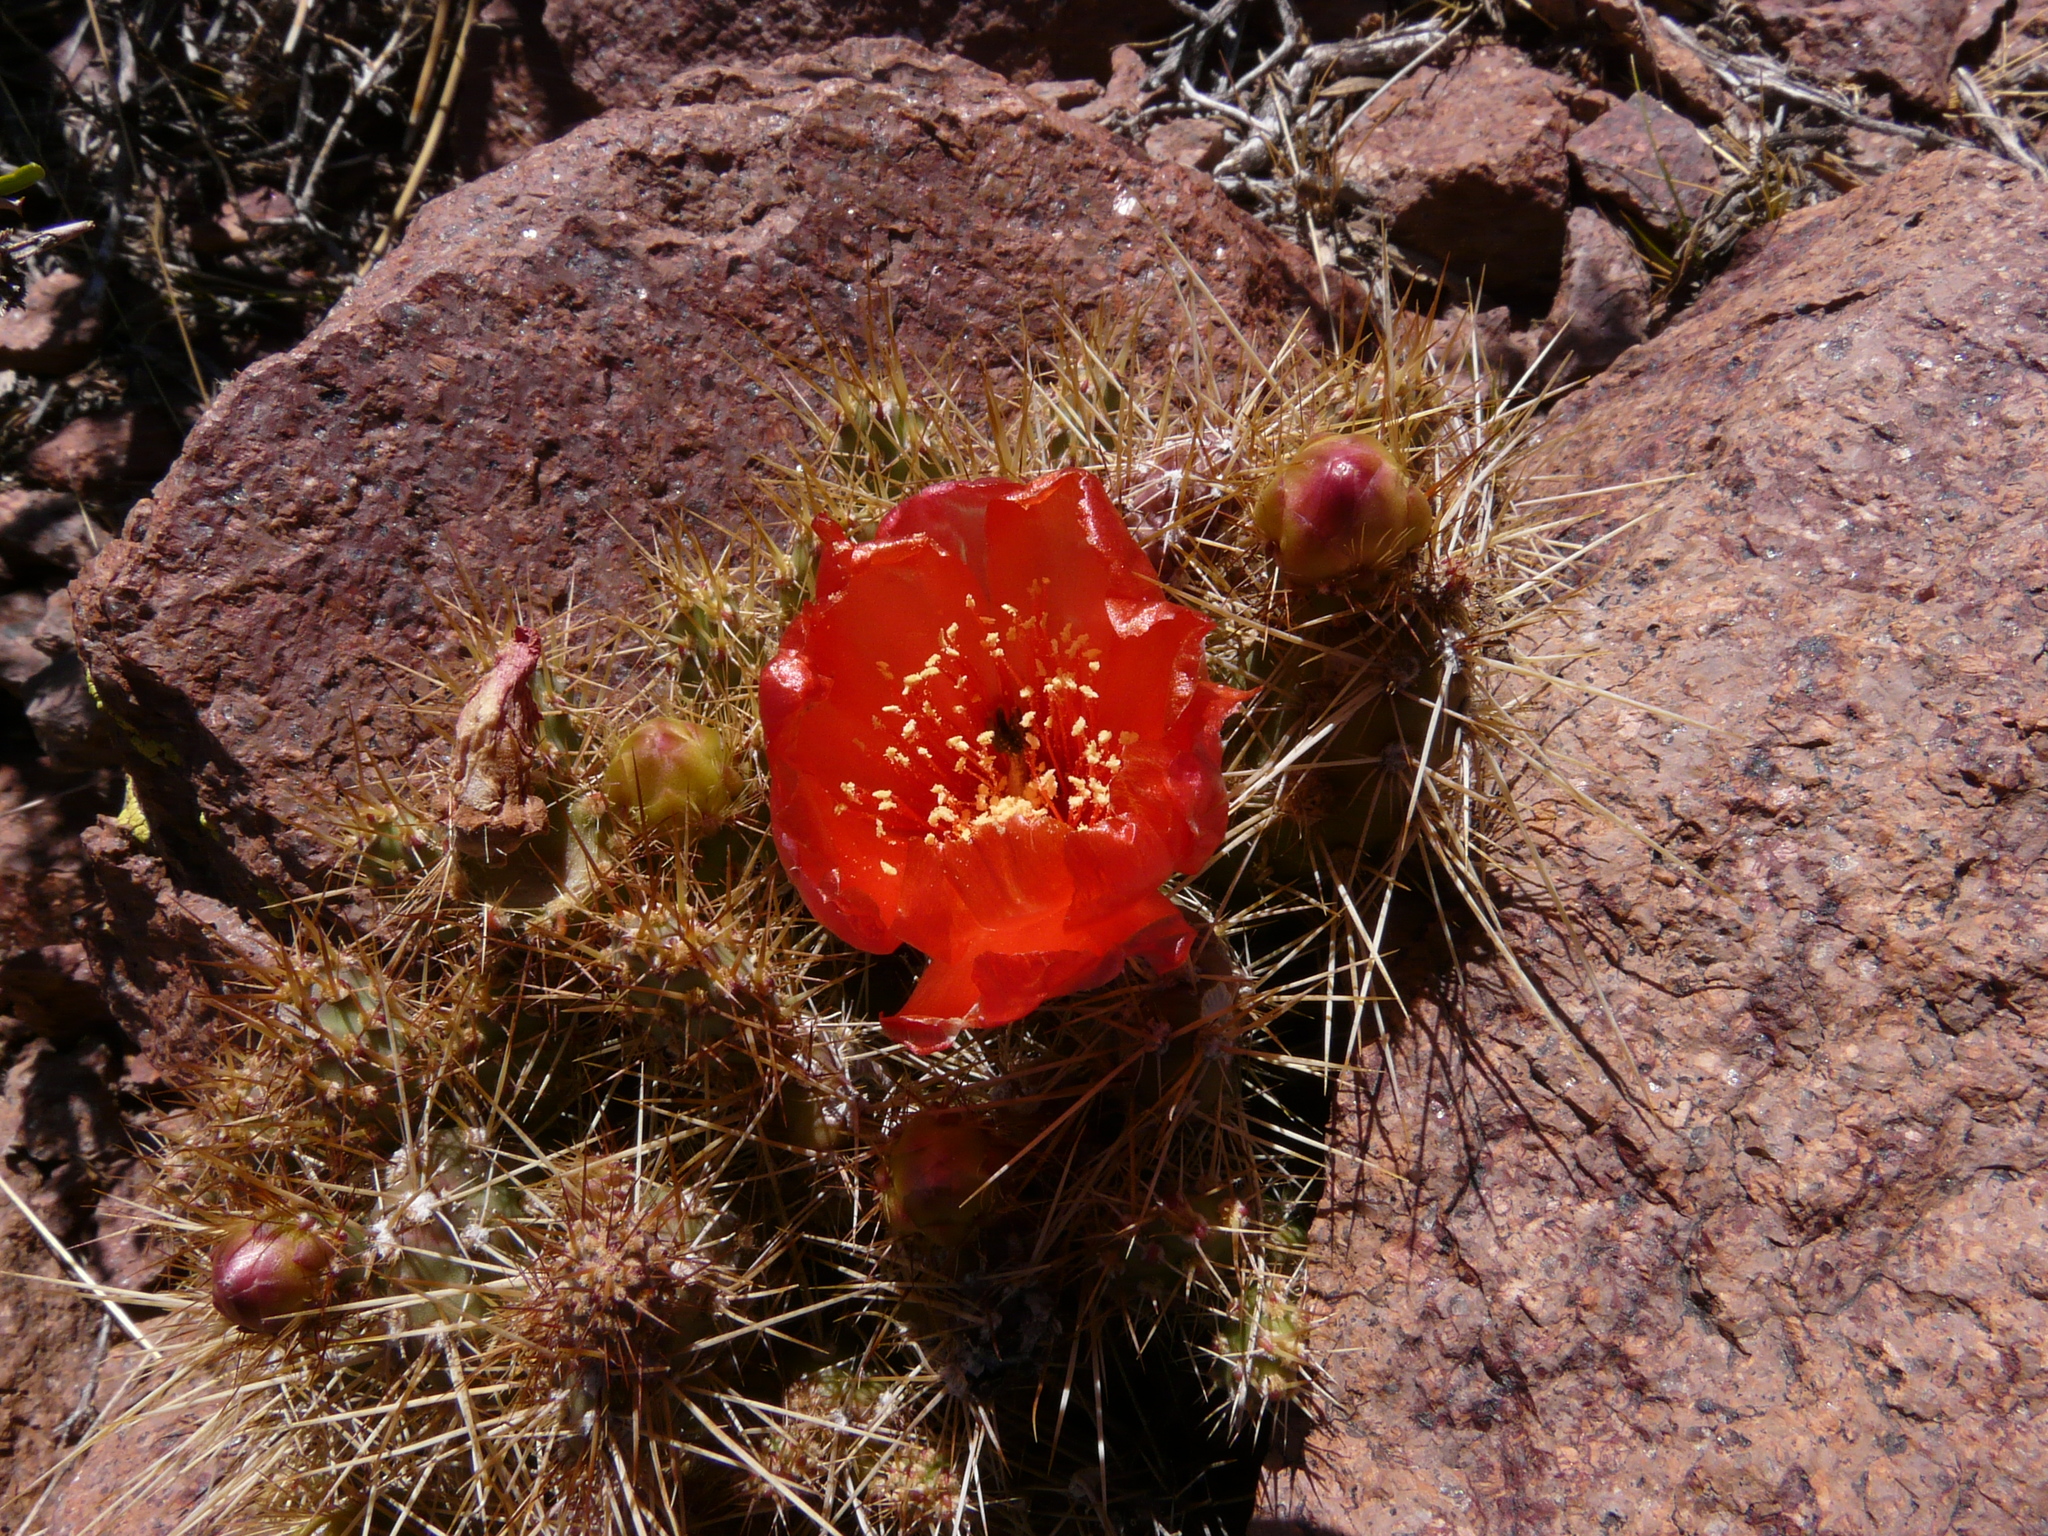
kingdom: Plantae
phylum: Tracheophyta
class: Magnoliopsida
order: Caryophyllales
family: Cactaceae
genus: Airampoa
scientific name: Airampoa corrugata
